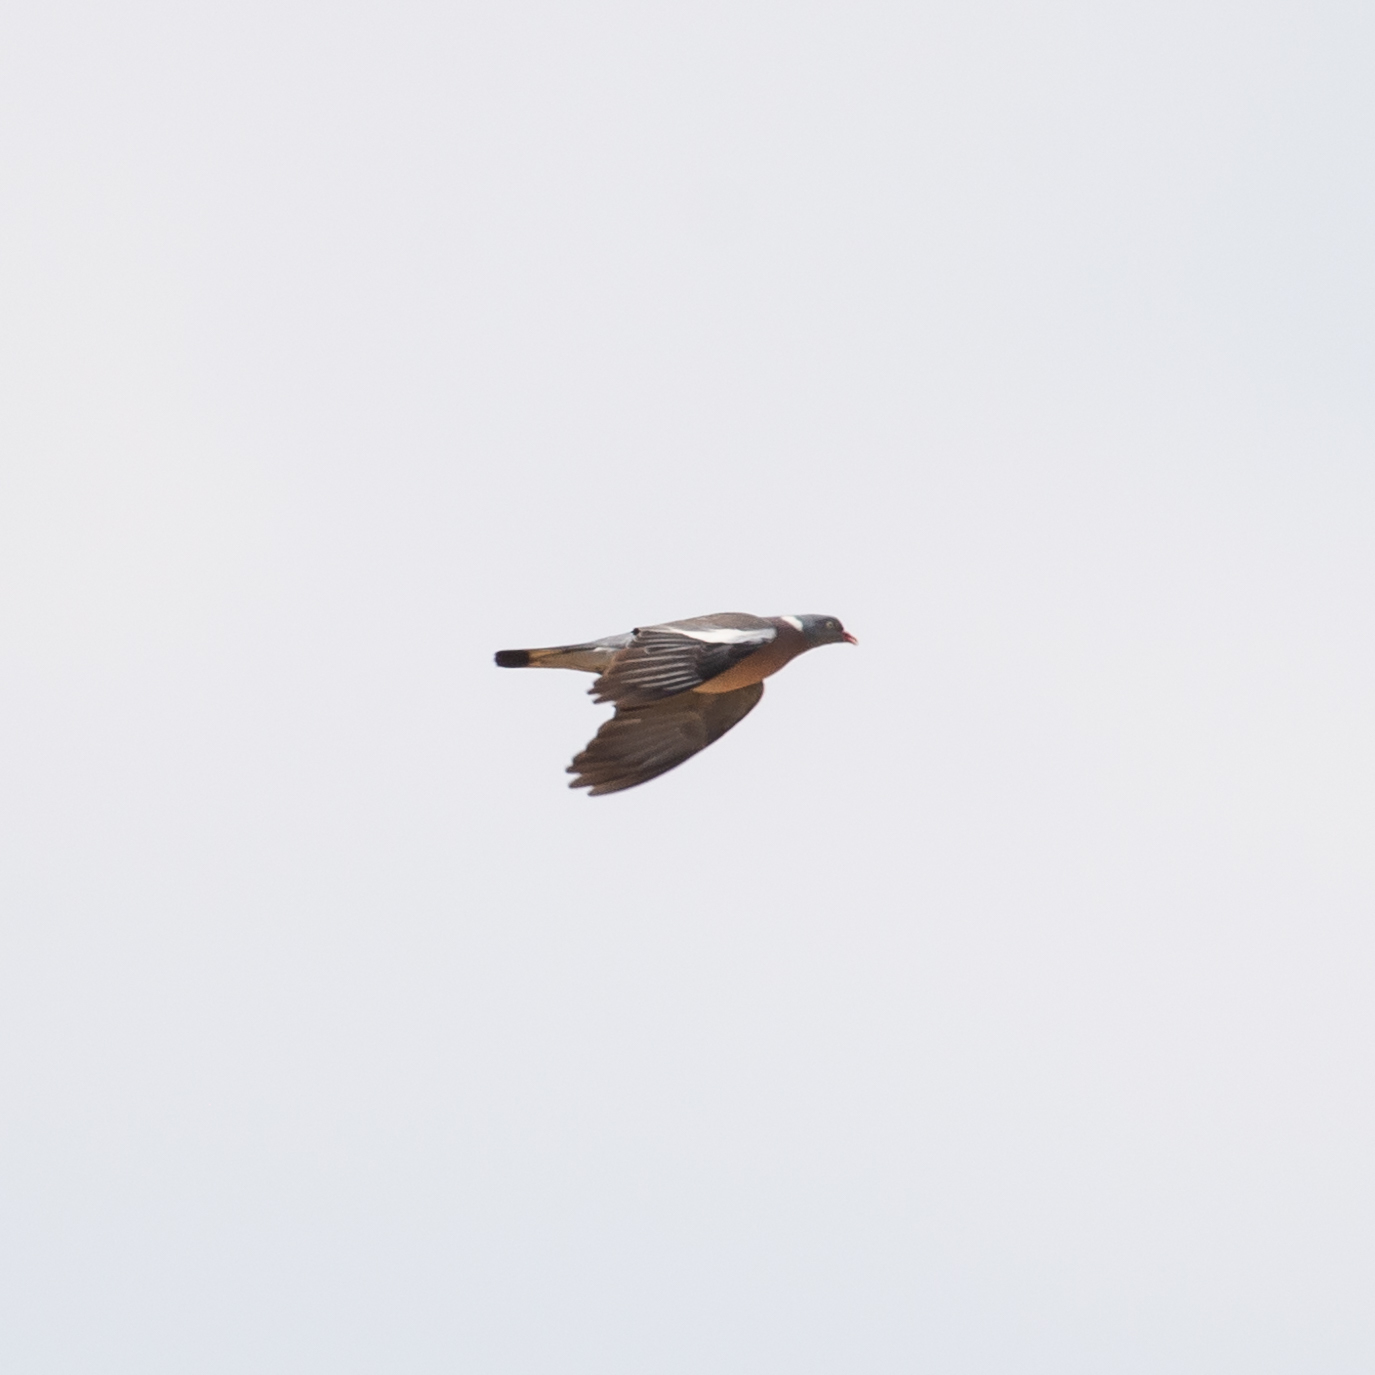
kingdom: Animalia
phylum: Chordata
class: Aves
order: Columbiformes
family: Columbidae
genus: Columba
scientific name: Columba palumbus
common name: Common wood pigeon
